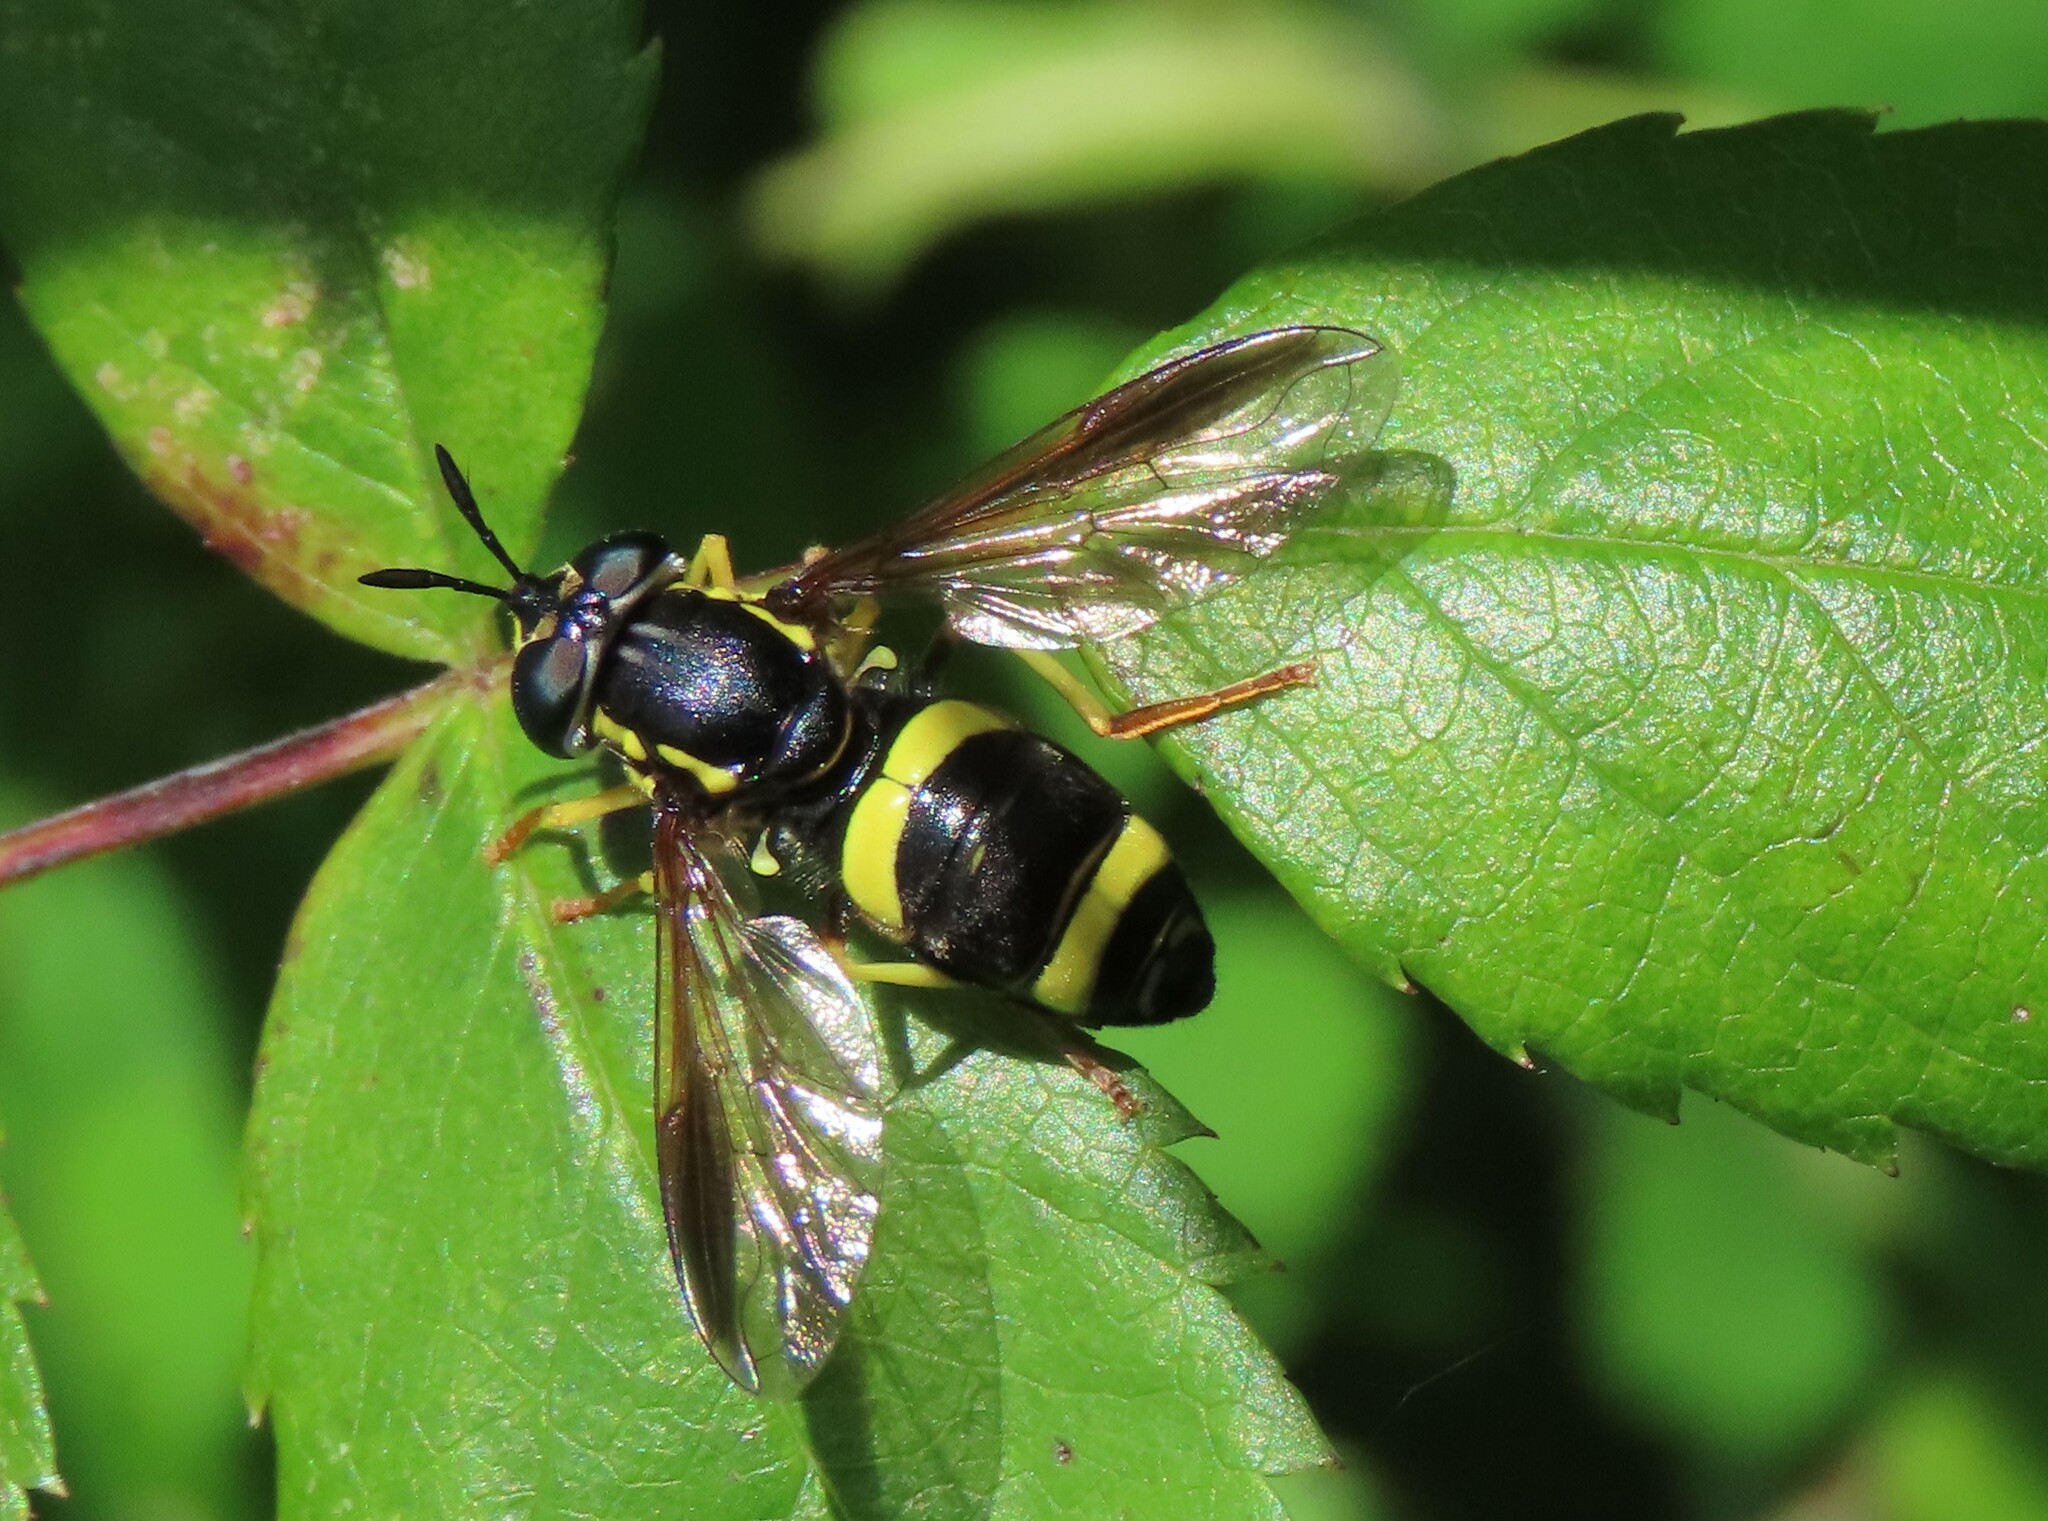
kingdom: Animalia
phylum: Arthropoda
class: Insecta
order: Diptera
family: Syrphidae
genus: Chrysotoxum
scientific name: Chrysotoxum bicincta
